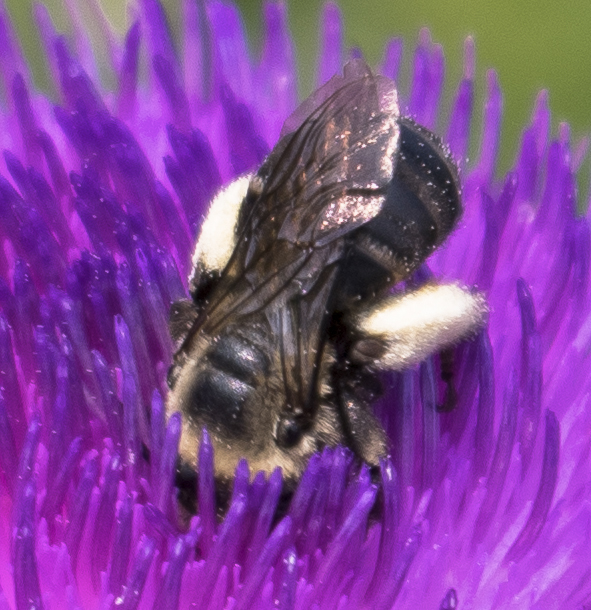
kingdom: Animalia
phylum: Arthropoda
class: Insecta
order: Hymenoptera
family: Apidae
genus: Melissodes
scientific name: Melissodes desponsus
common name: Thistle long-horned bee
